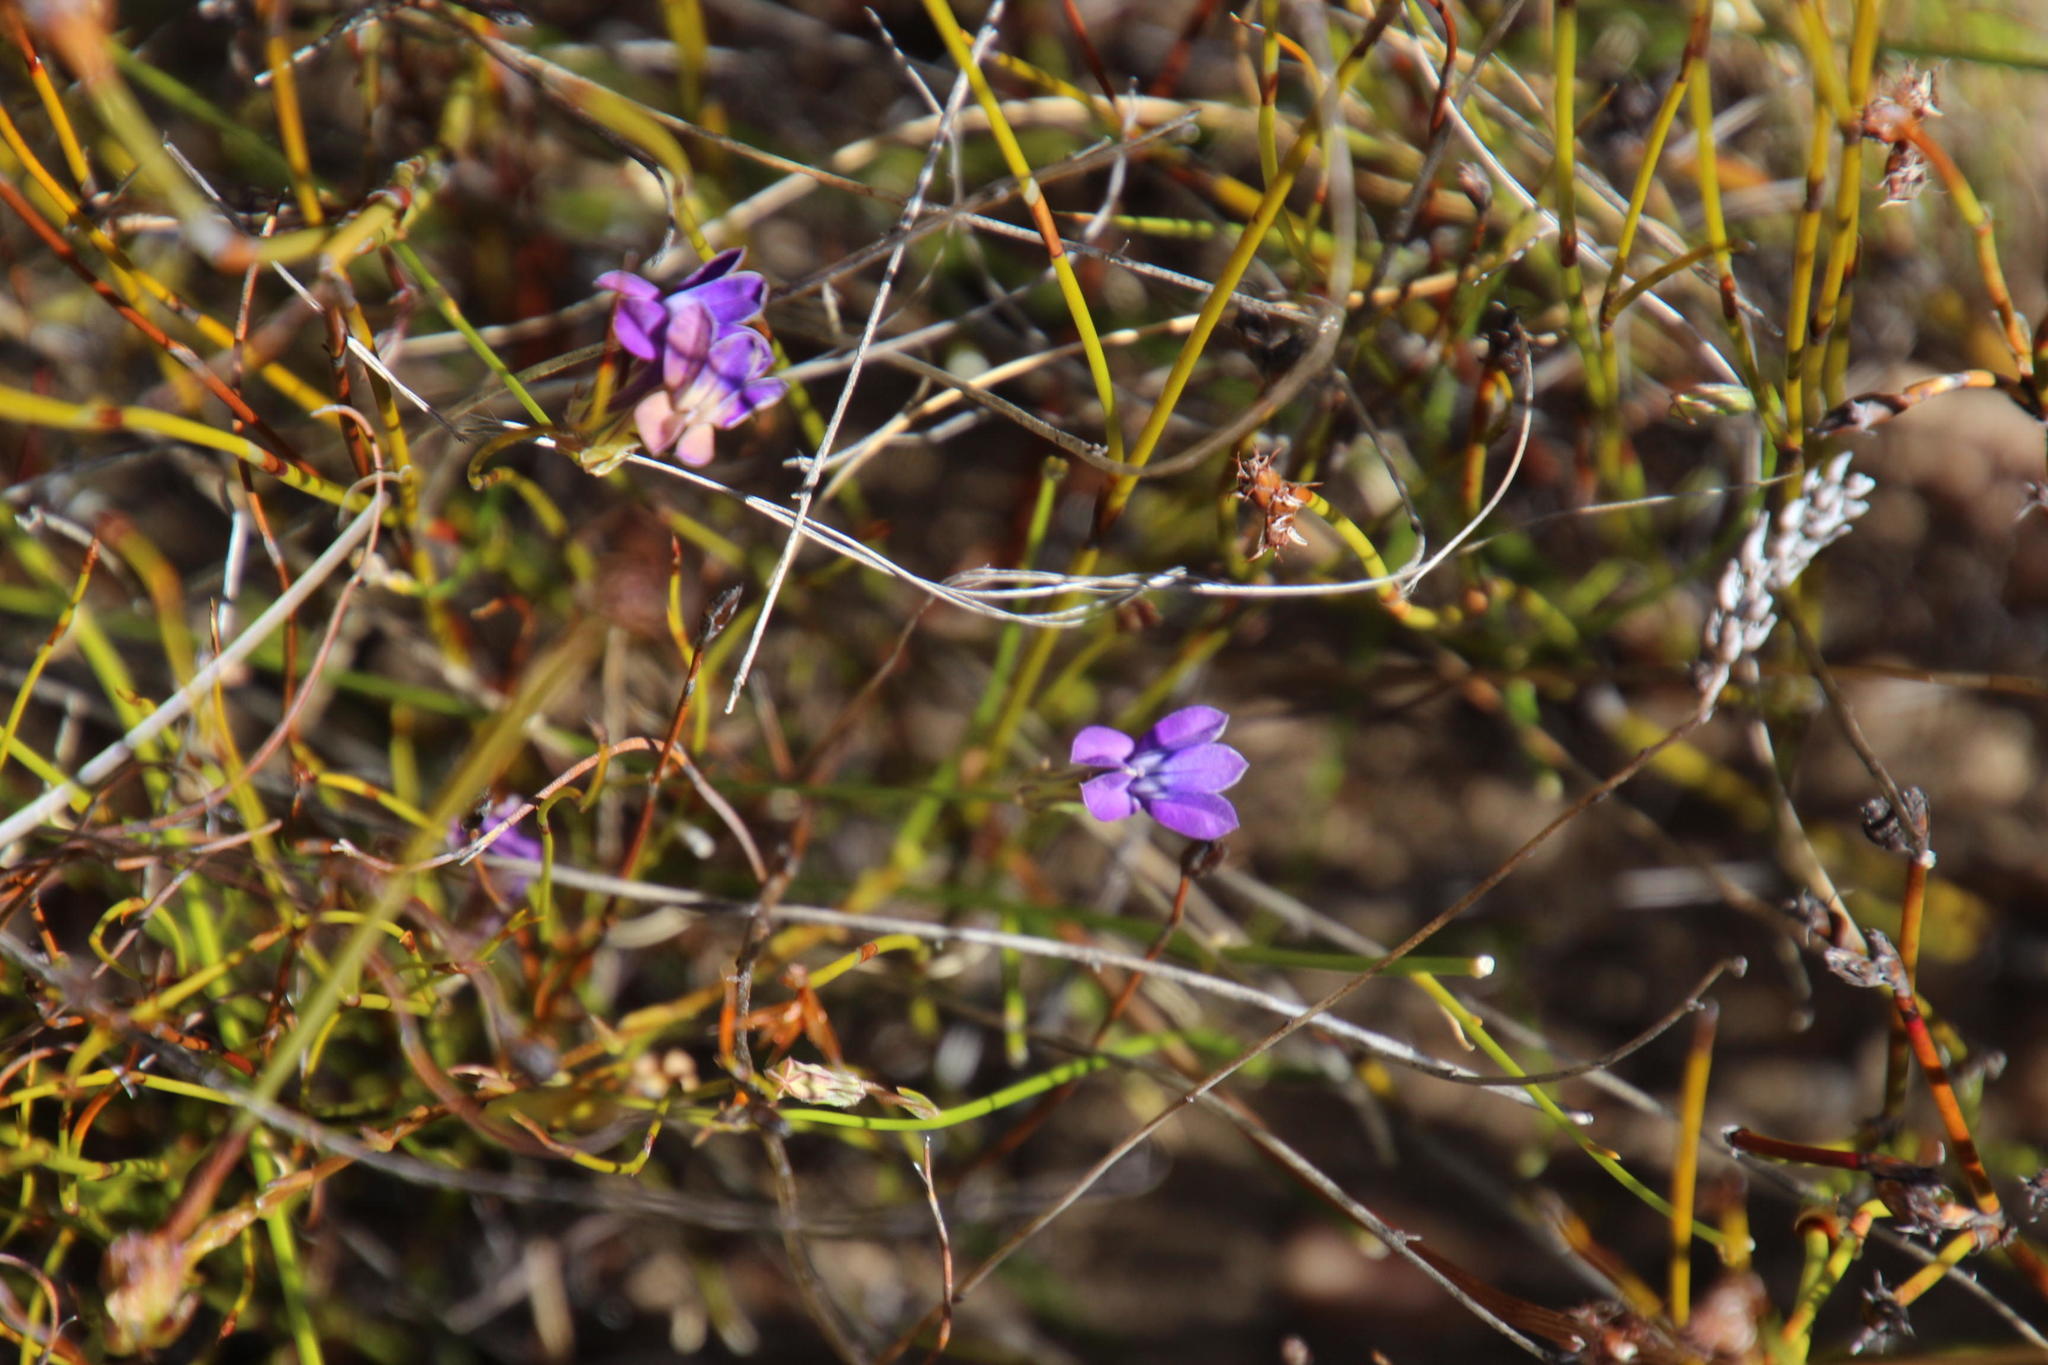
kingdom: Plantae
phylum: Tracheophyta
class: Magnoliopsida
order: Asterales
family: Campanulaceae
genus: Lobelia
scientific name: Lobelia linearis
